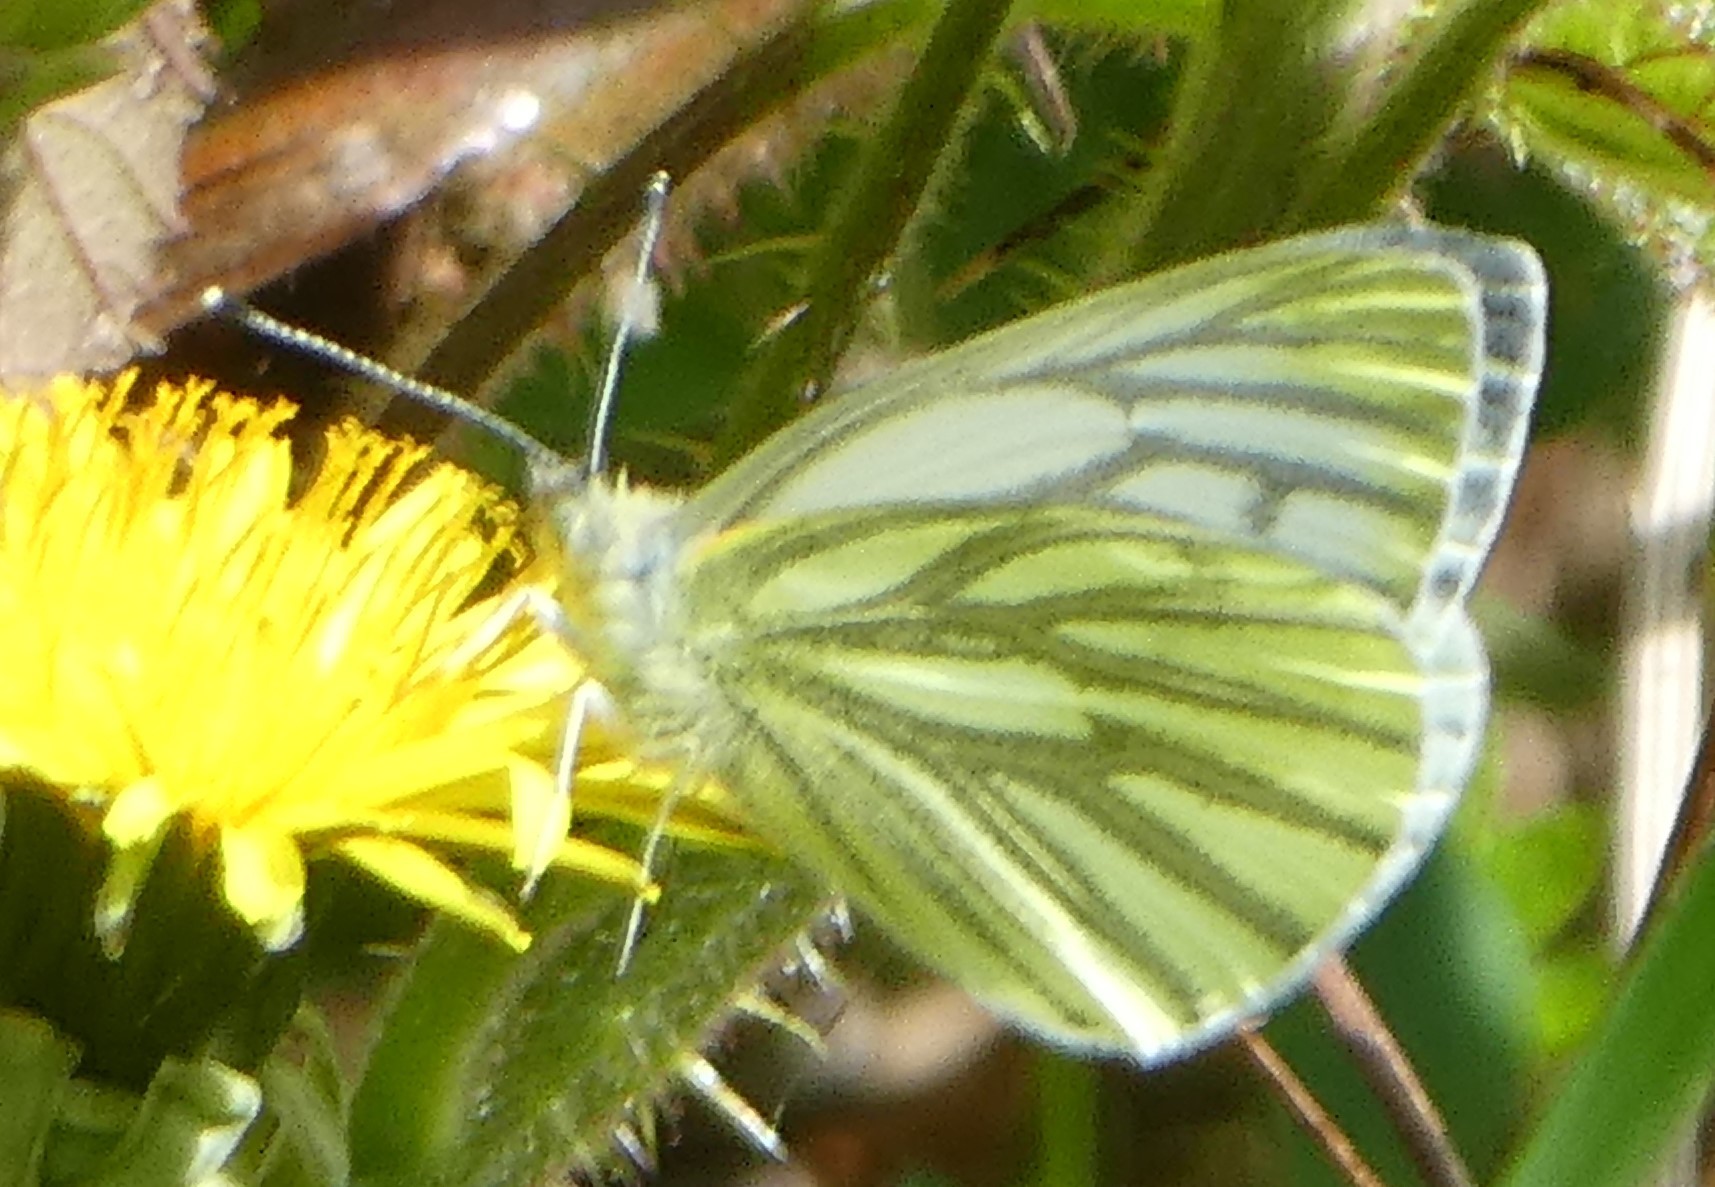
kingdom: Animalia
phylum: Arthropoda
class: Insecta
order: Lepidoptera
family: Pieridae
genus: Pieris
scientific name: Pieris napi
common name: Green-veined white
